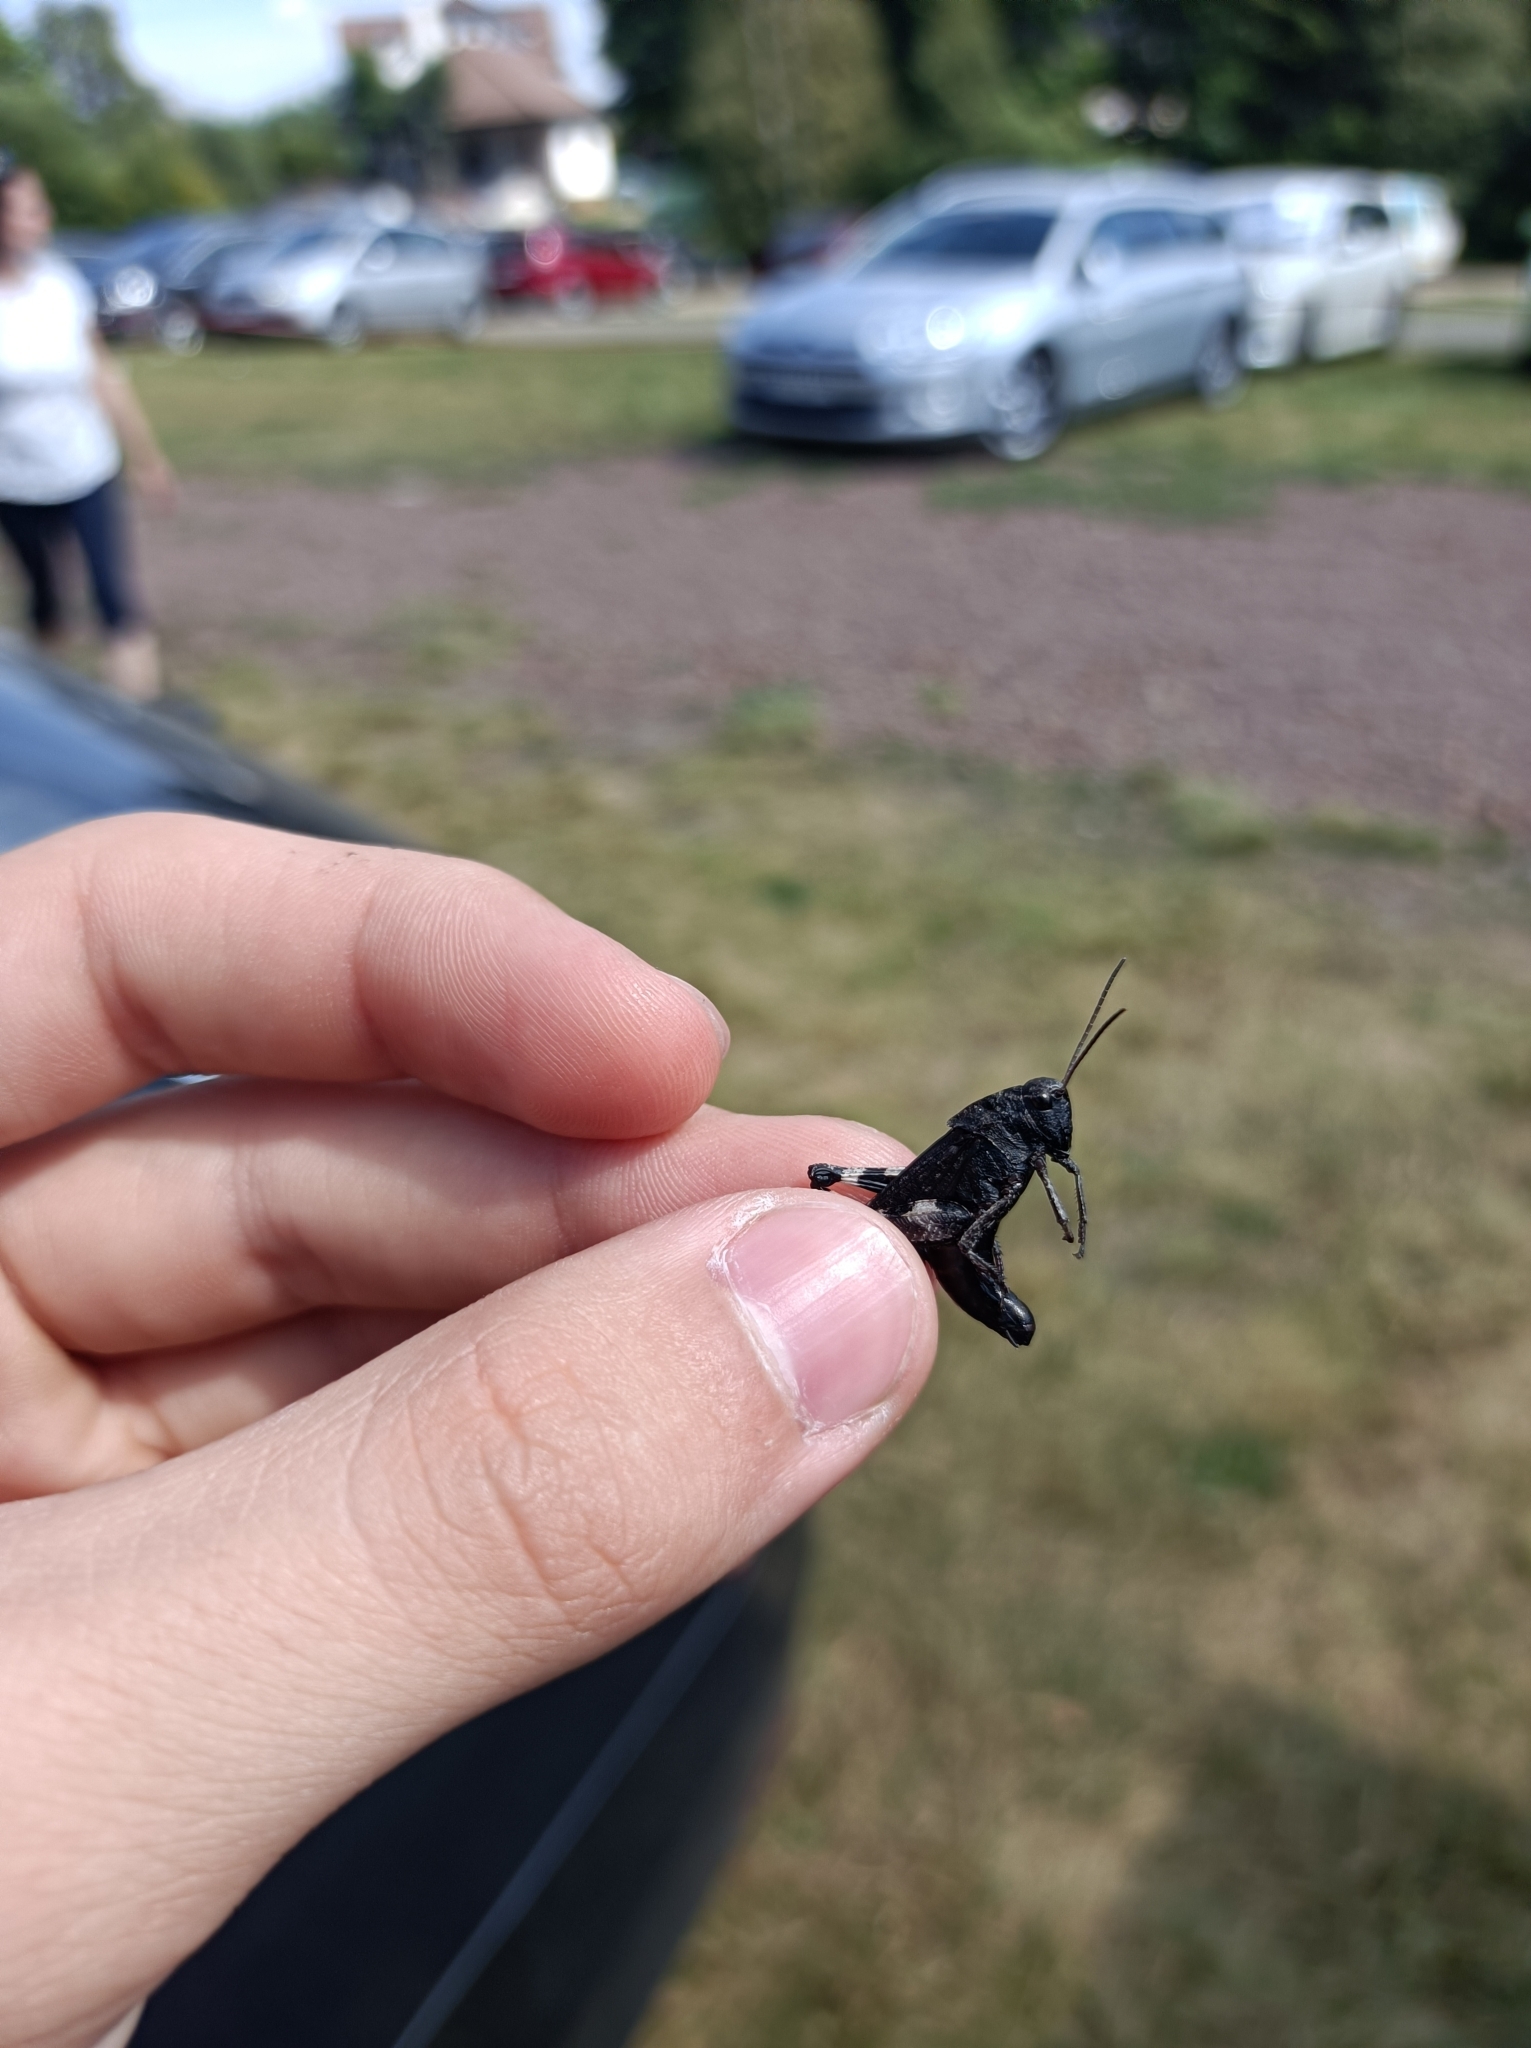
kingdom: Animalia
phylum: Arthropoda
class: Insecta
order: Orthoptera
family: Acrididae
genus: Psophus
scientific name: Psophus stridulus
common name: Rattle grasshopper
